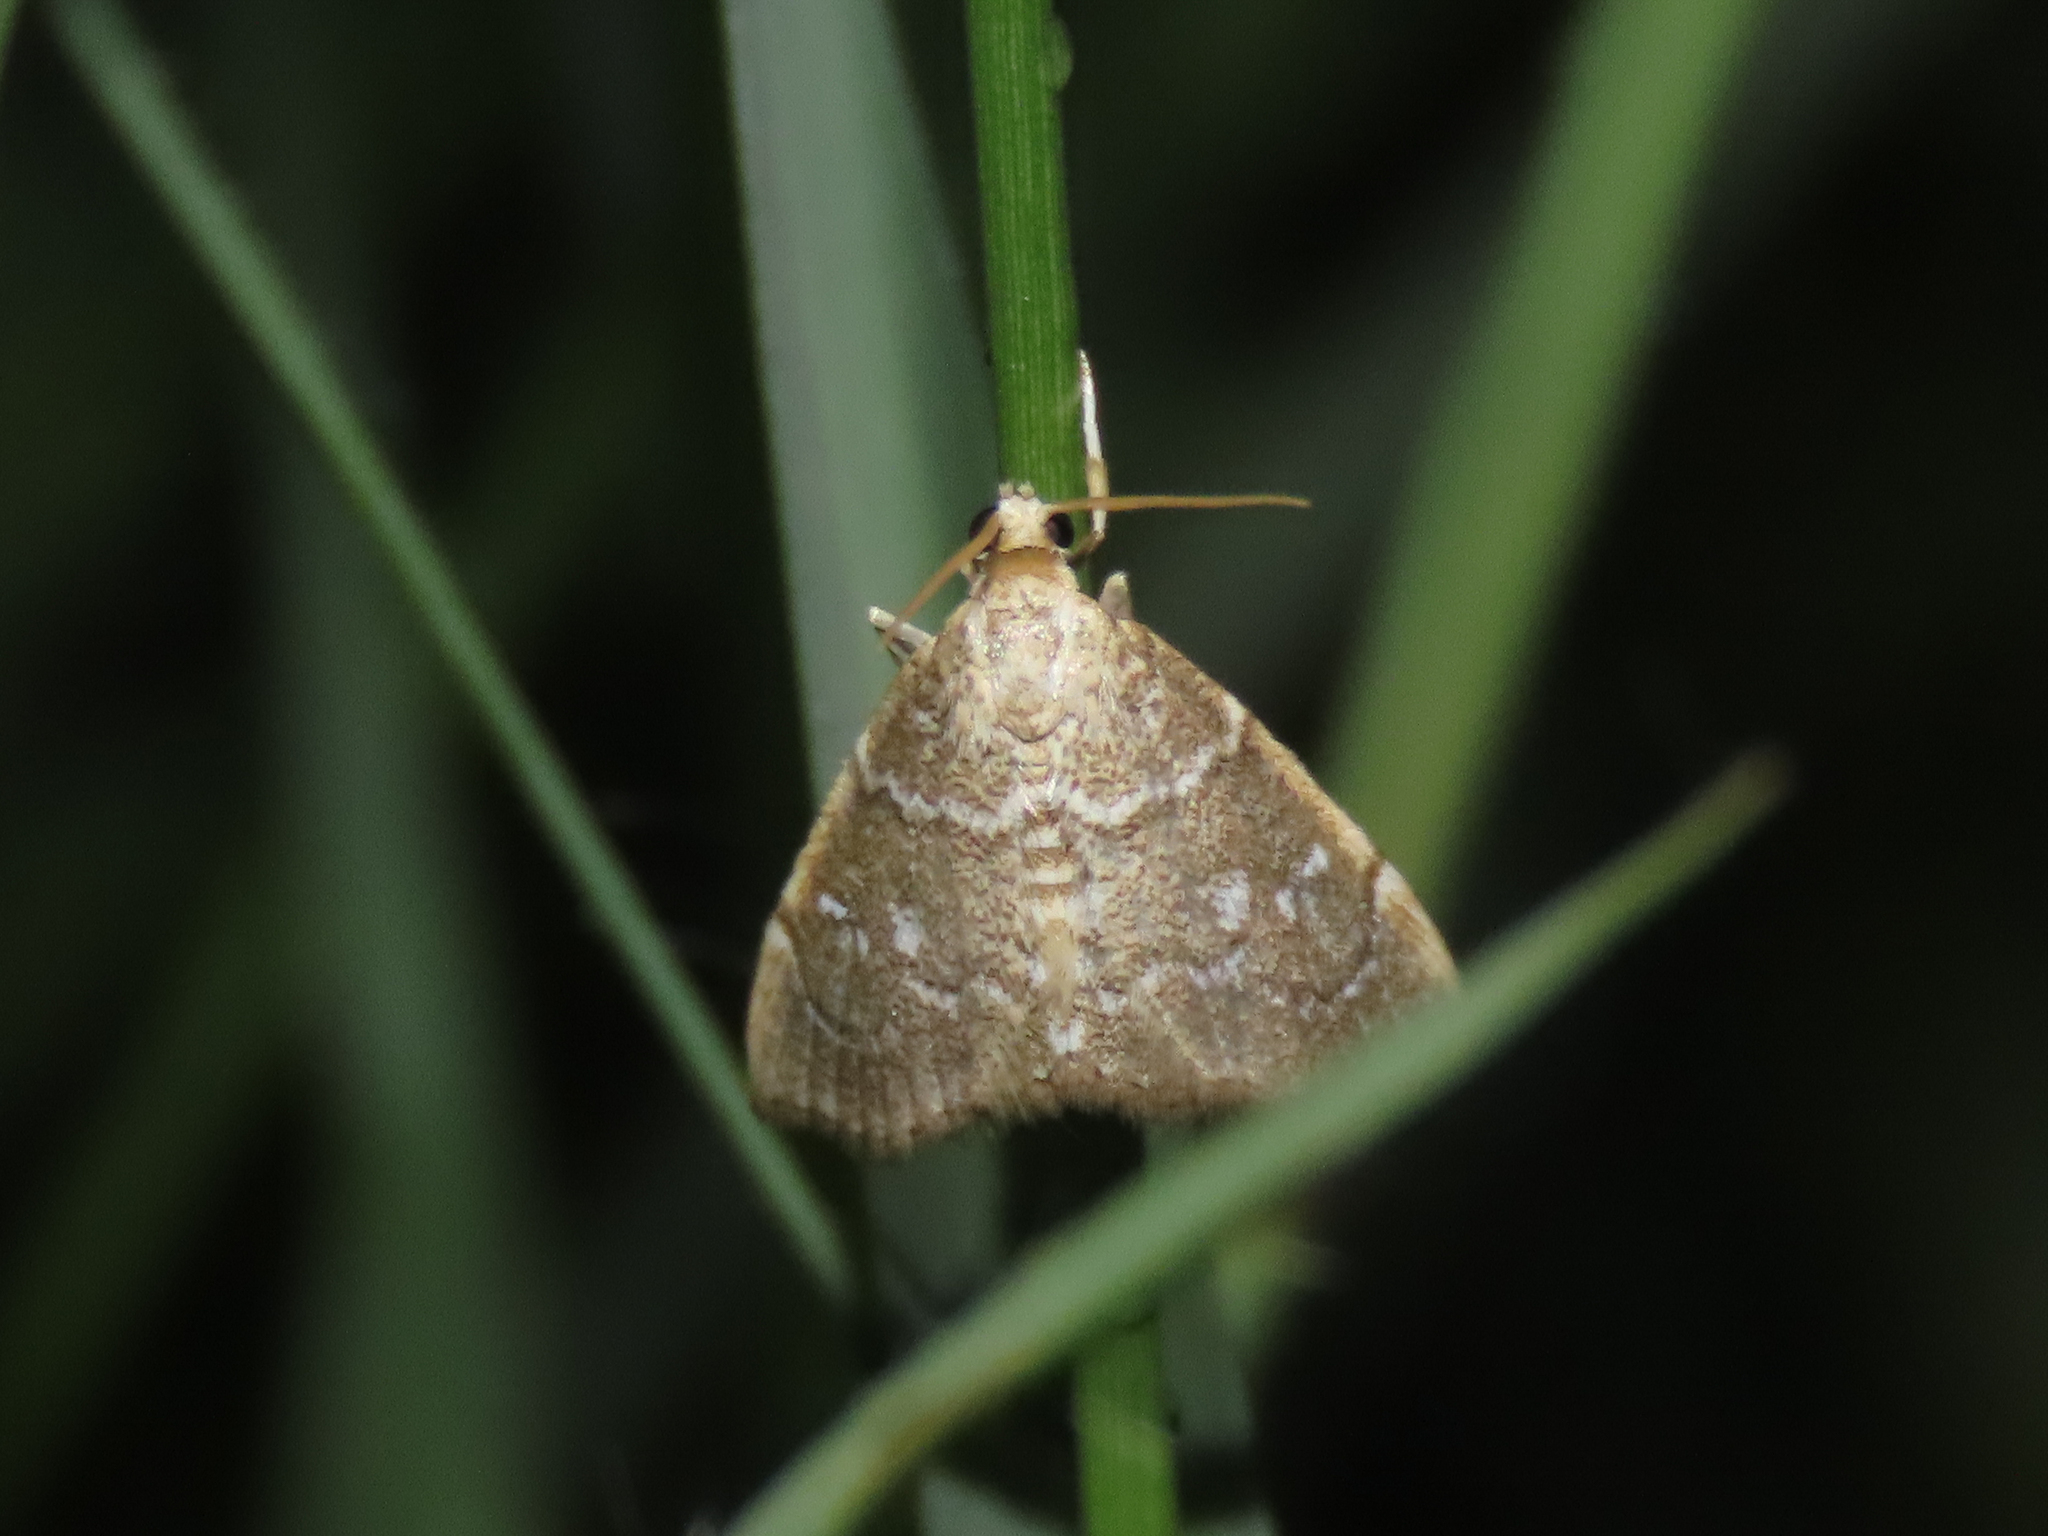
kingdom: Animalia
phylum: Arthropoda
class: Insecta
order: Lepidoptera
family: Crambidae
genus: Nephrogramma
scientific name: Nephrogramma separata
